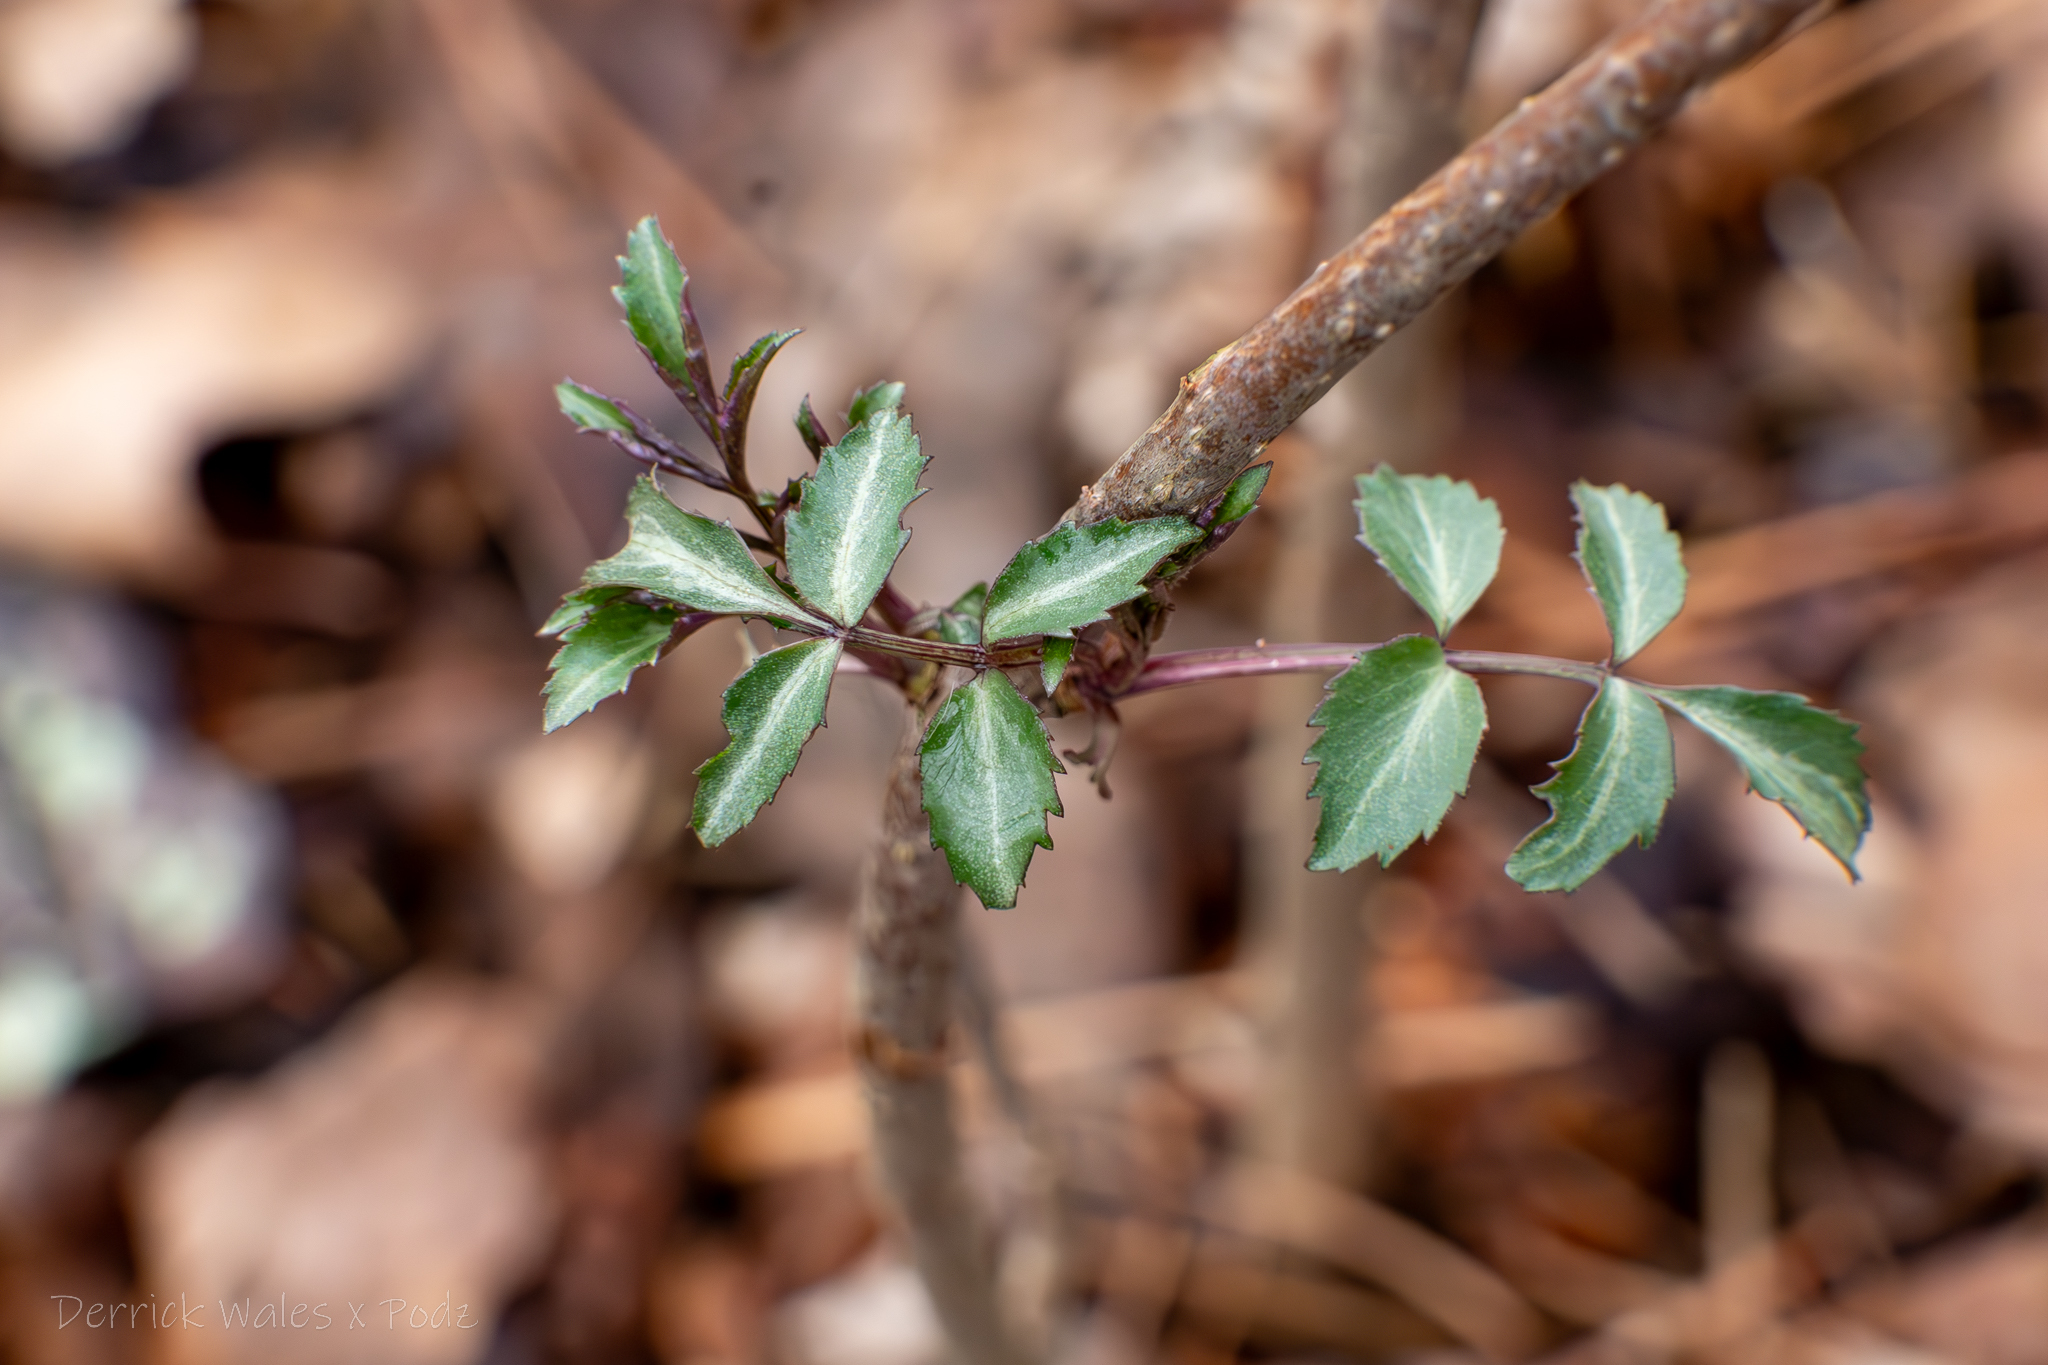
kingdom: Plantae
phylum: Tracheophyta
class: Magnoliopsida
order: Dipsacales
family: Viburnaceae
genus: Sambucus
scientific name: Sambucus canadensis
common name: American elder
